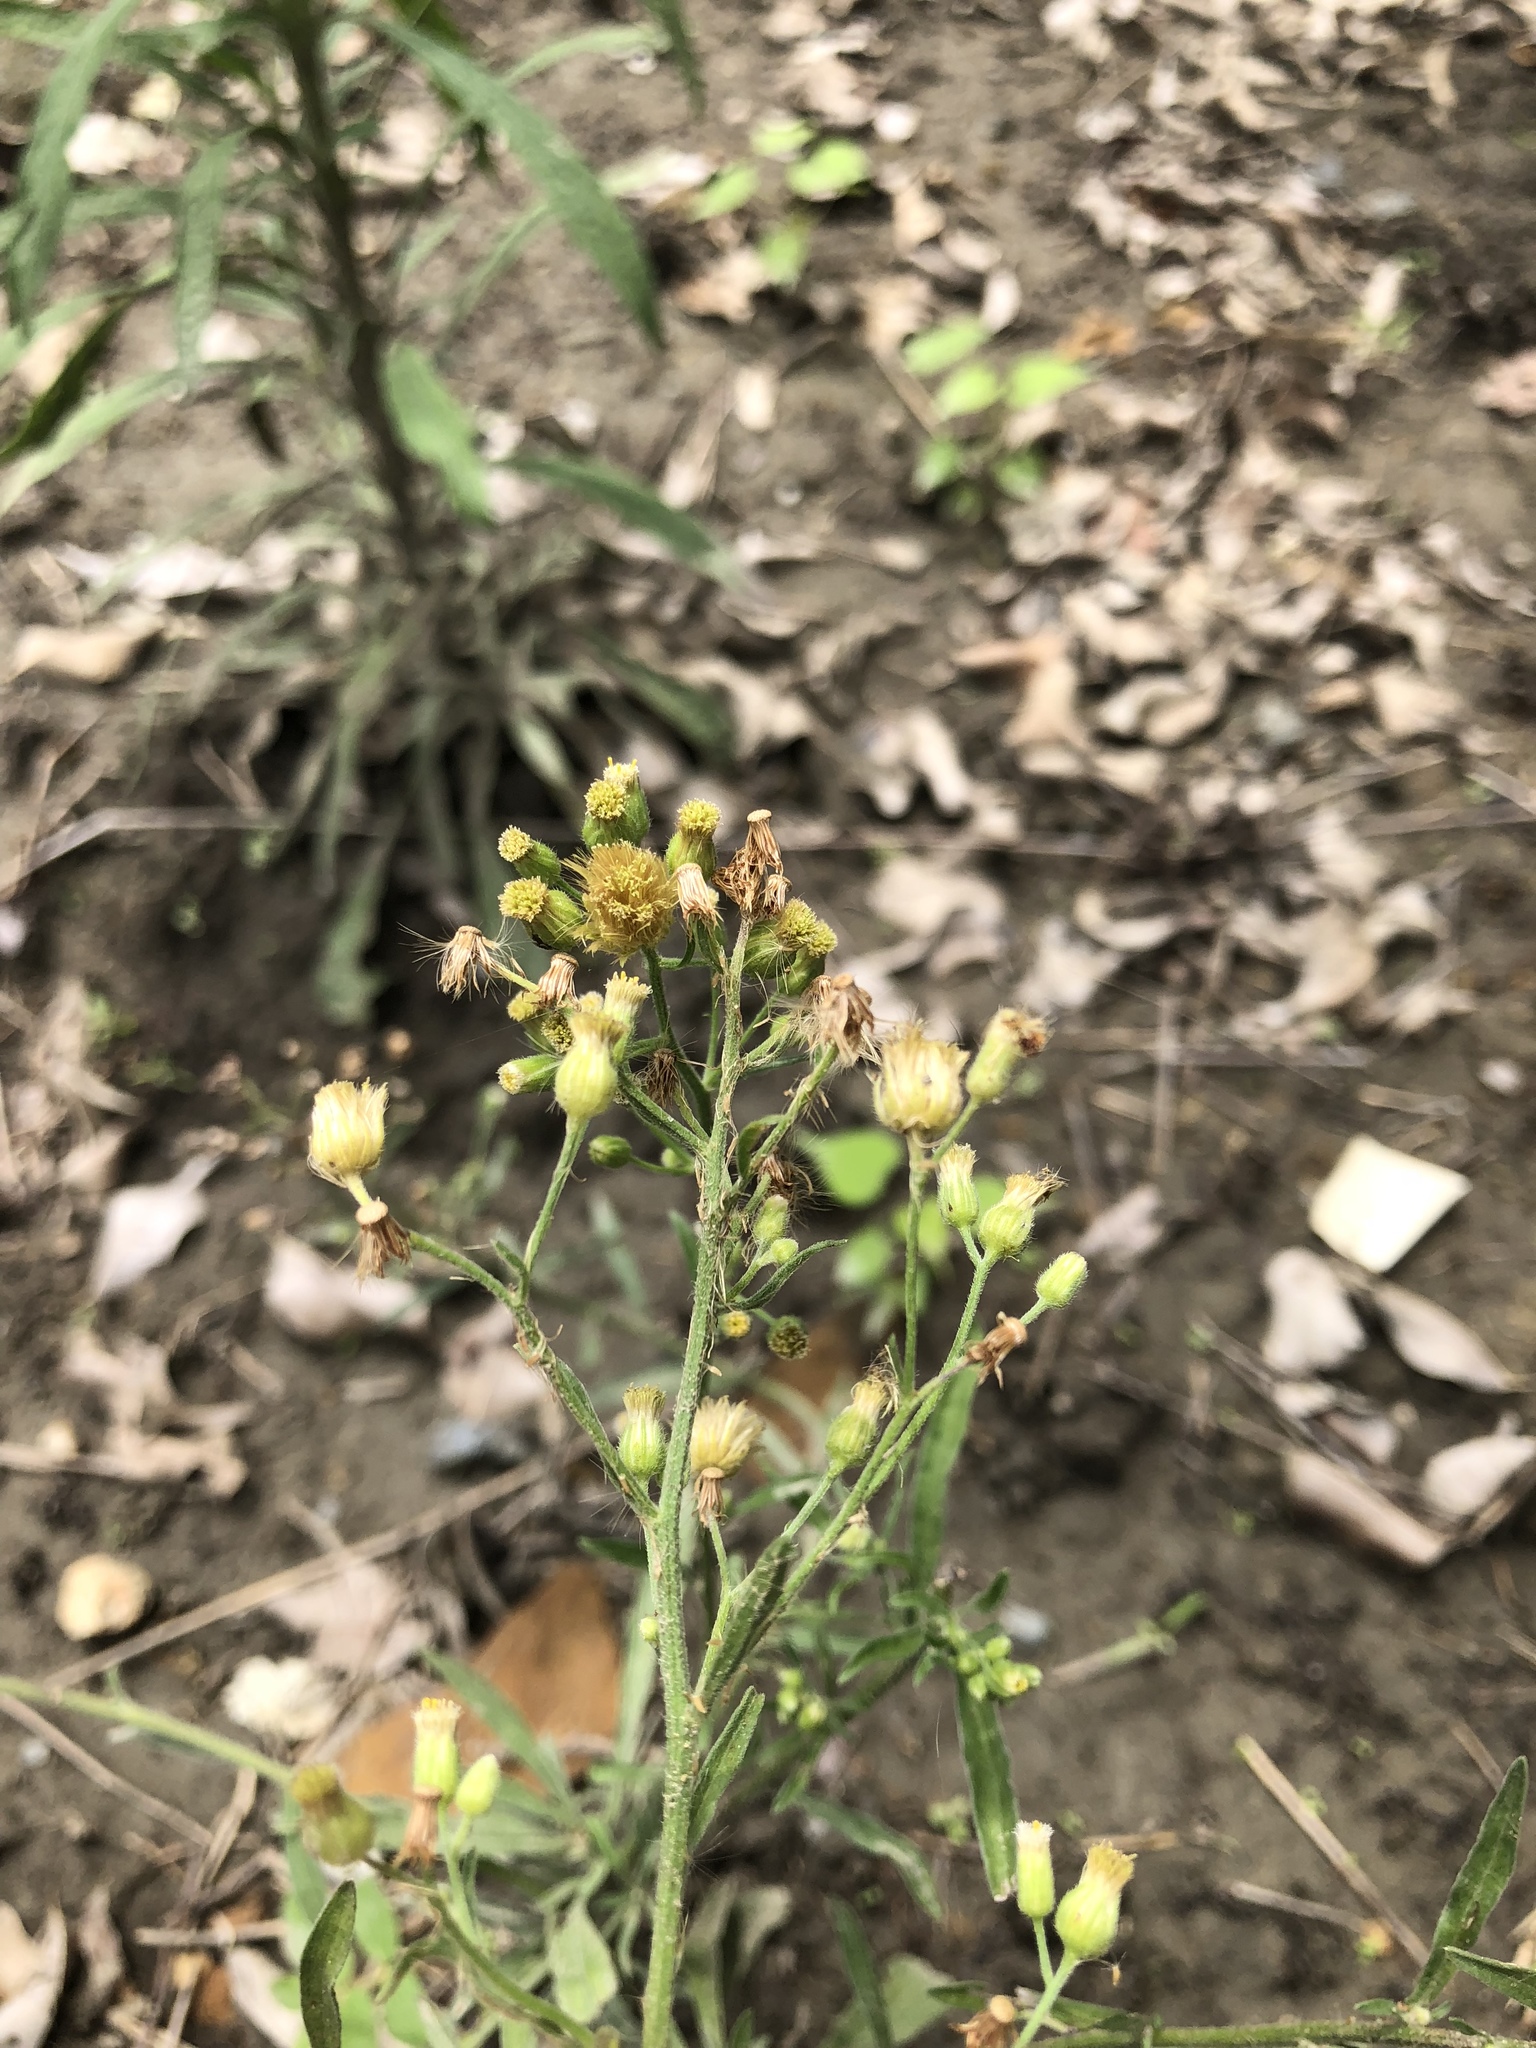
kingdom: Plantae
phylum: Tracheophyta
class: Magnoliopsida
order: Asterales
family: Asteraceae
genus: Erigeron
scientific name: Erigeron sumatrensis
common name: Daisy
